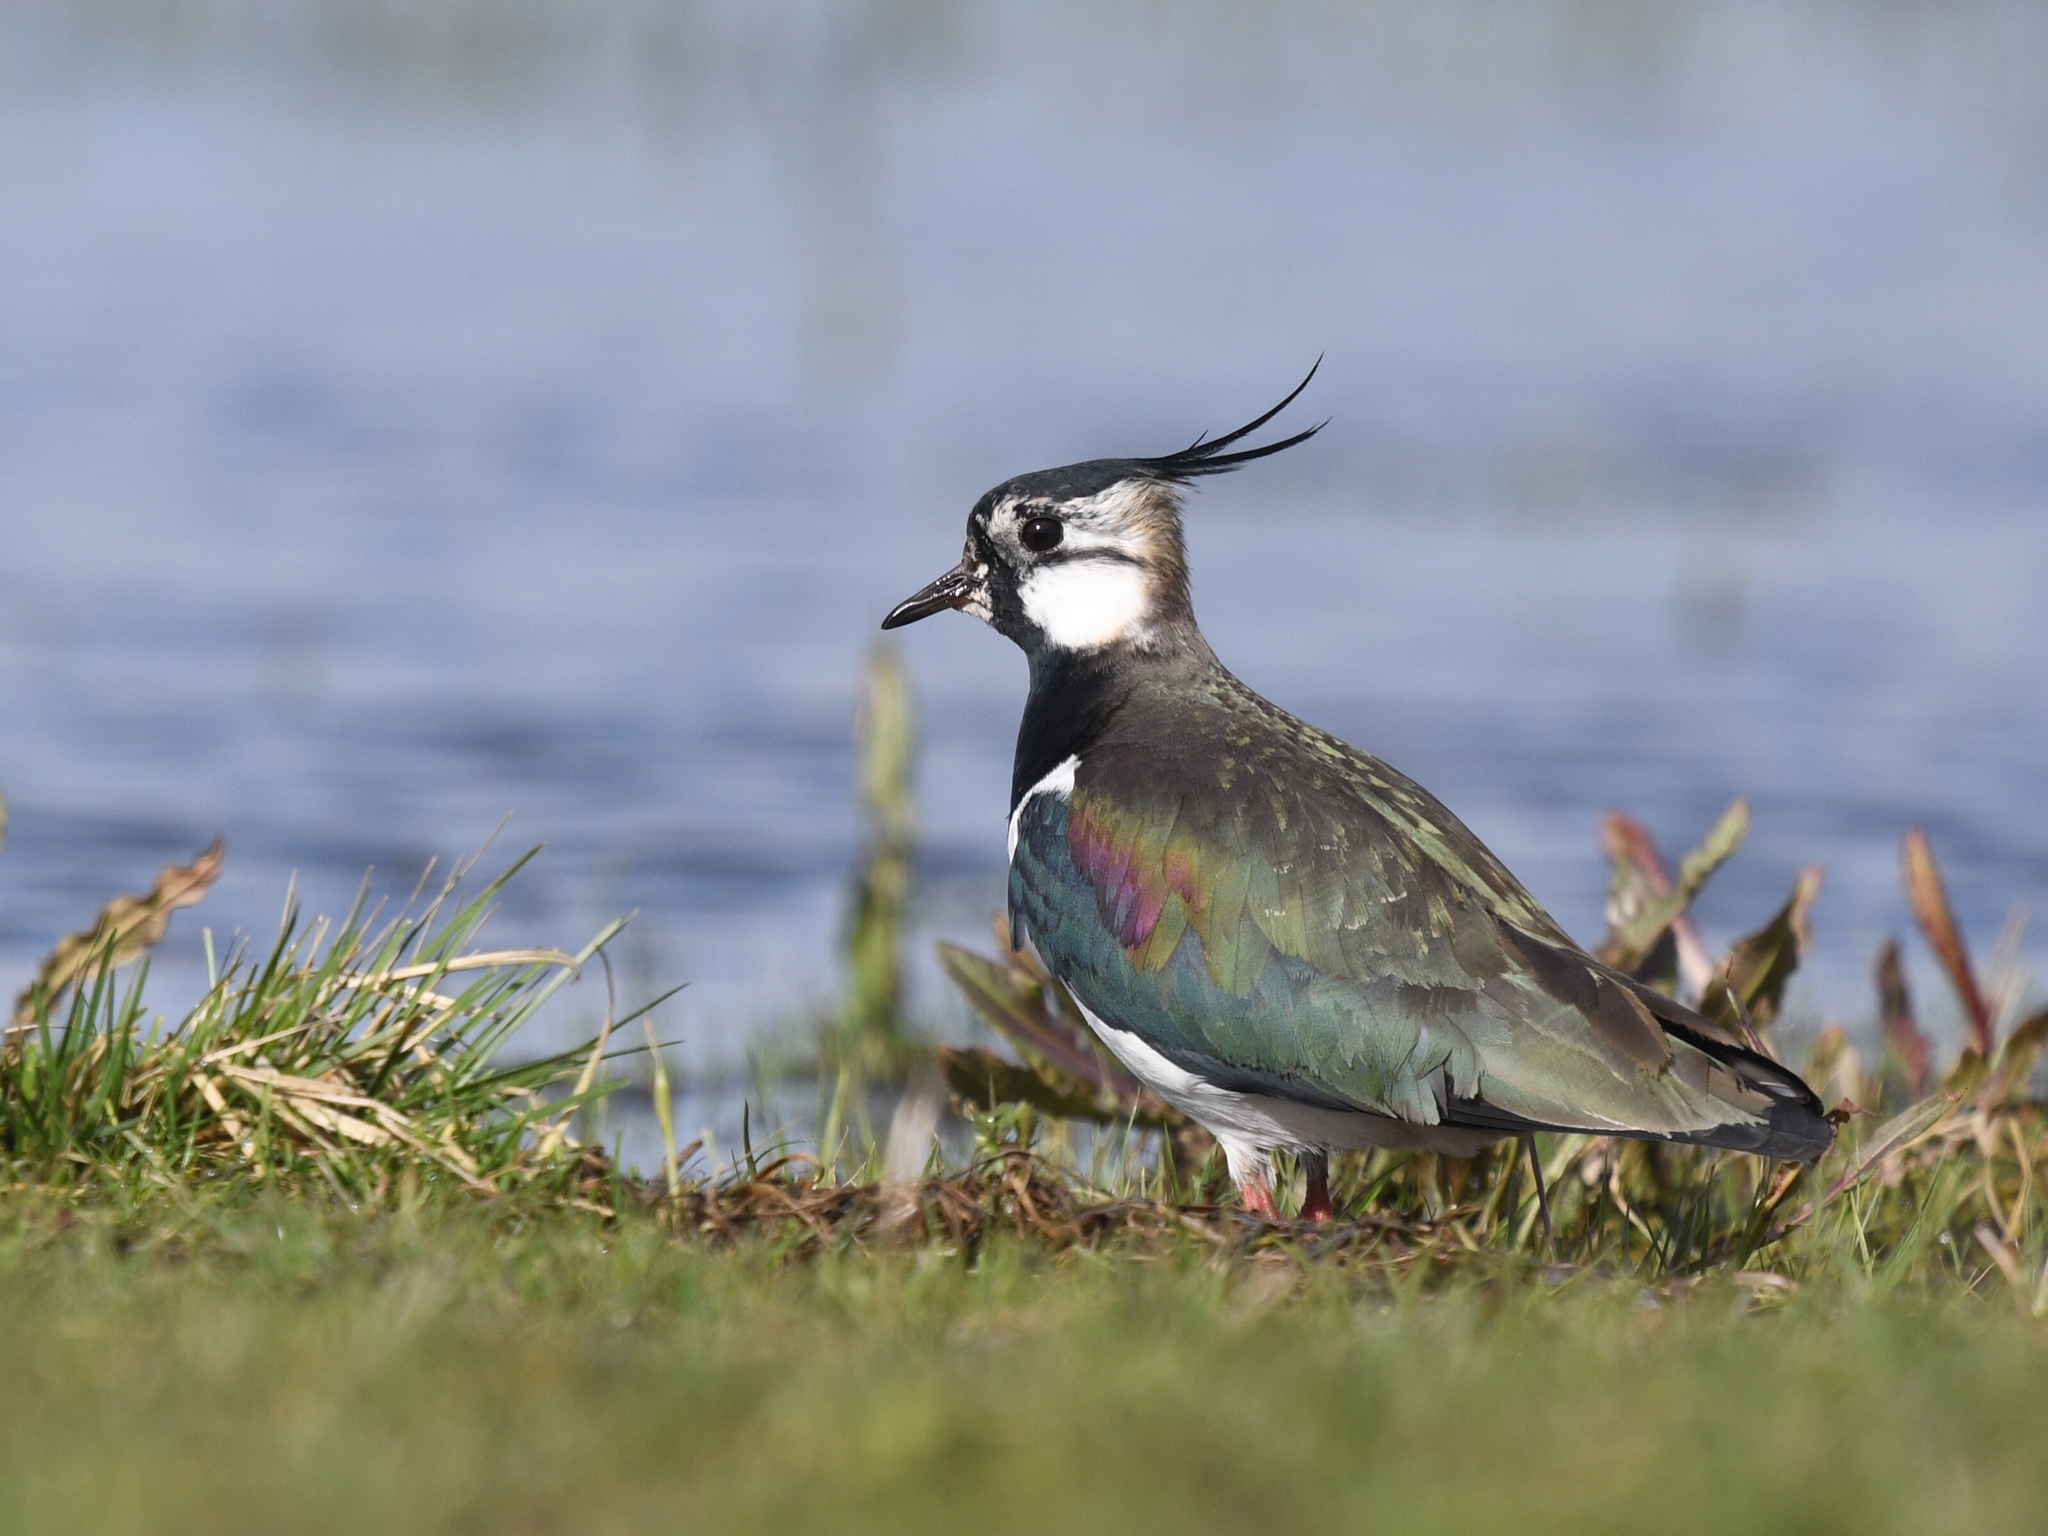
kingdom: Animalia
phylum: Chordata
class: Aves
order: Charadriiformes
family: Charadriidae
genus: Vanellus
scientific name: Vanellus vanellus
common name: Northern lapwing
